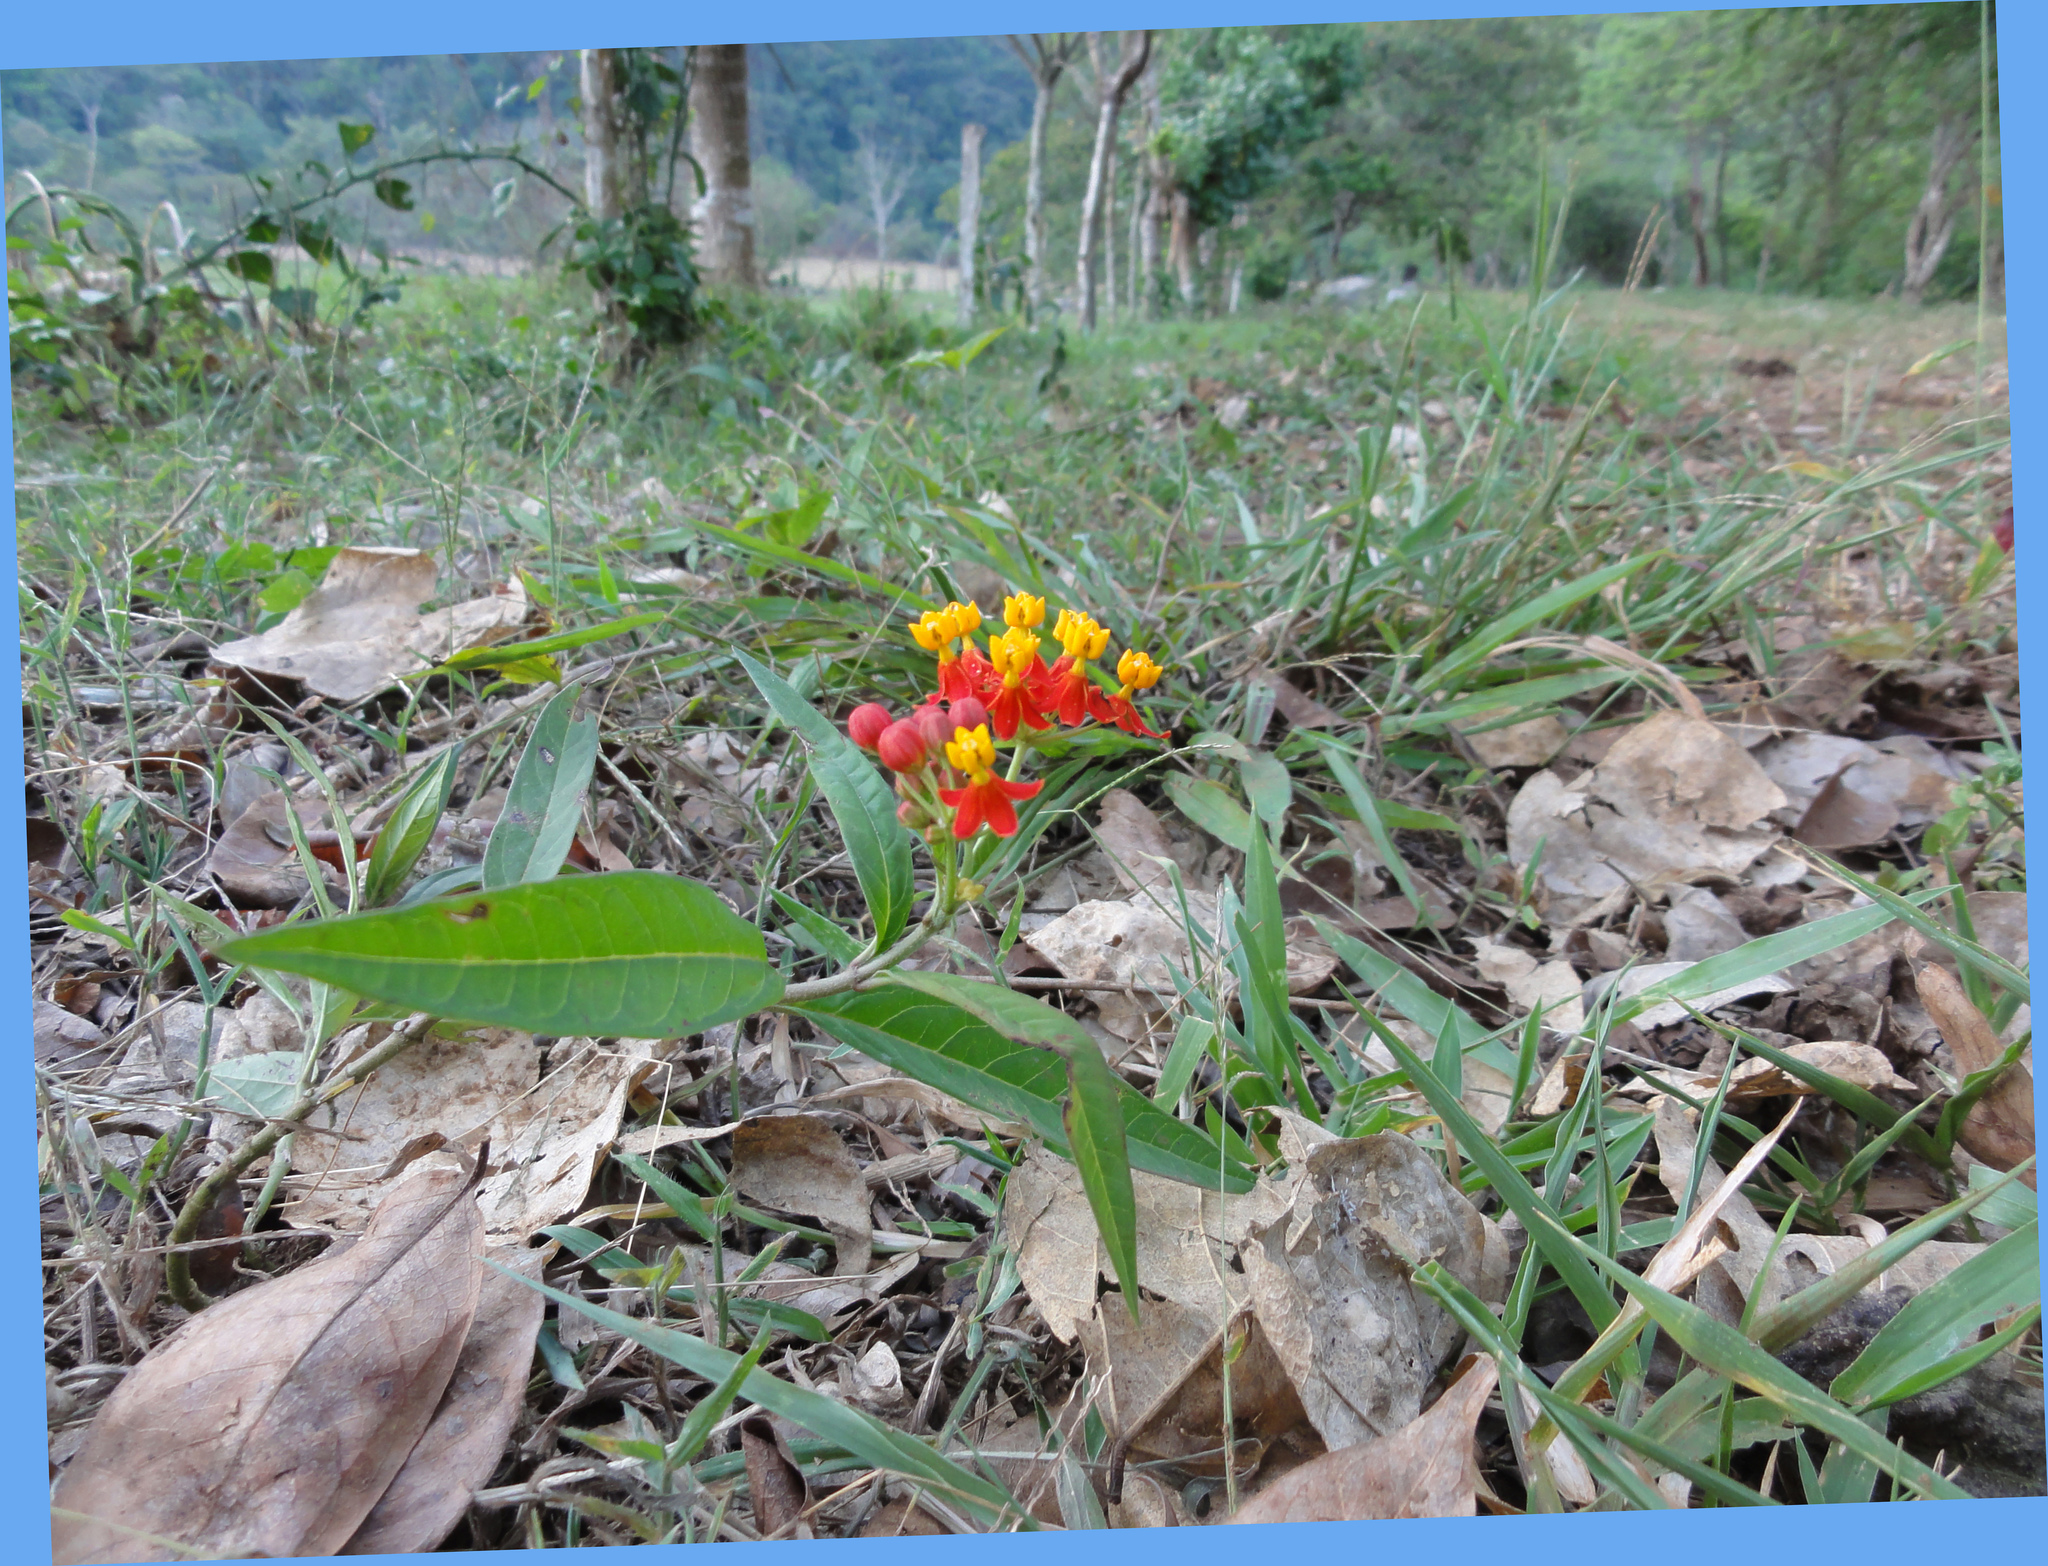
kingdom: Plantae
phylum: Tracheophyta
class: Magnoliopsida
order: Gentianales
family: Apocynaceae
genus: Asclepias
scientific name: Asclepias curassavica
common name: Bloodflower
